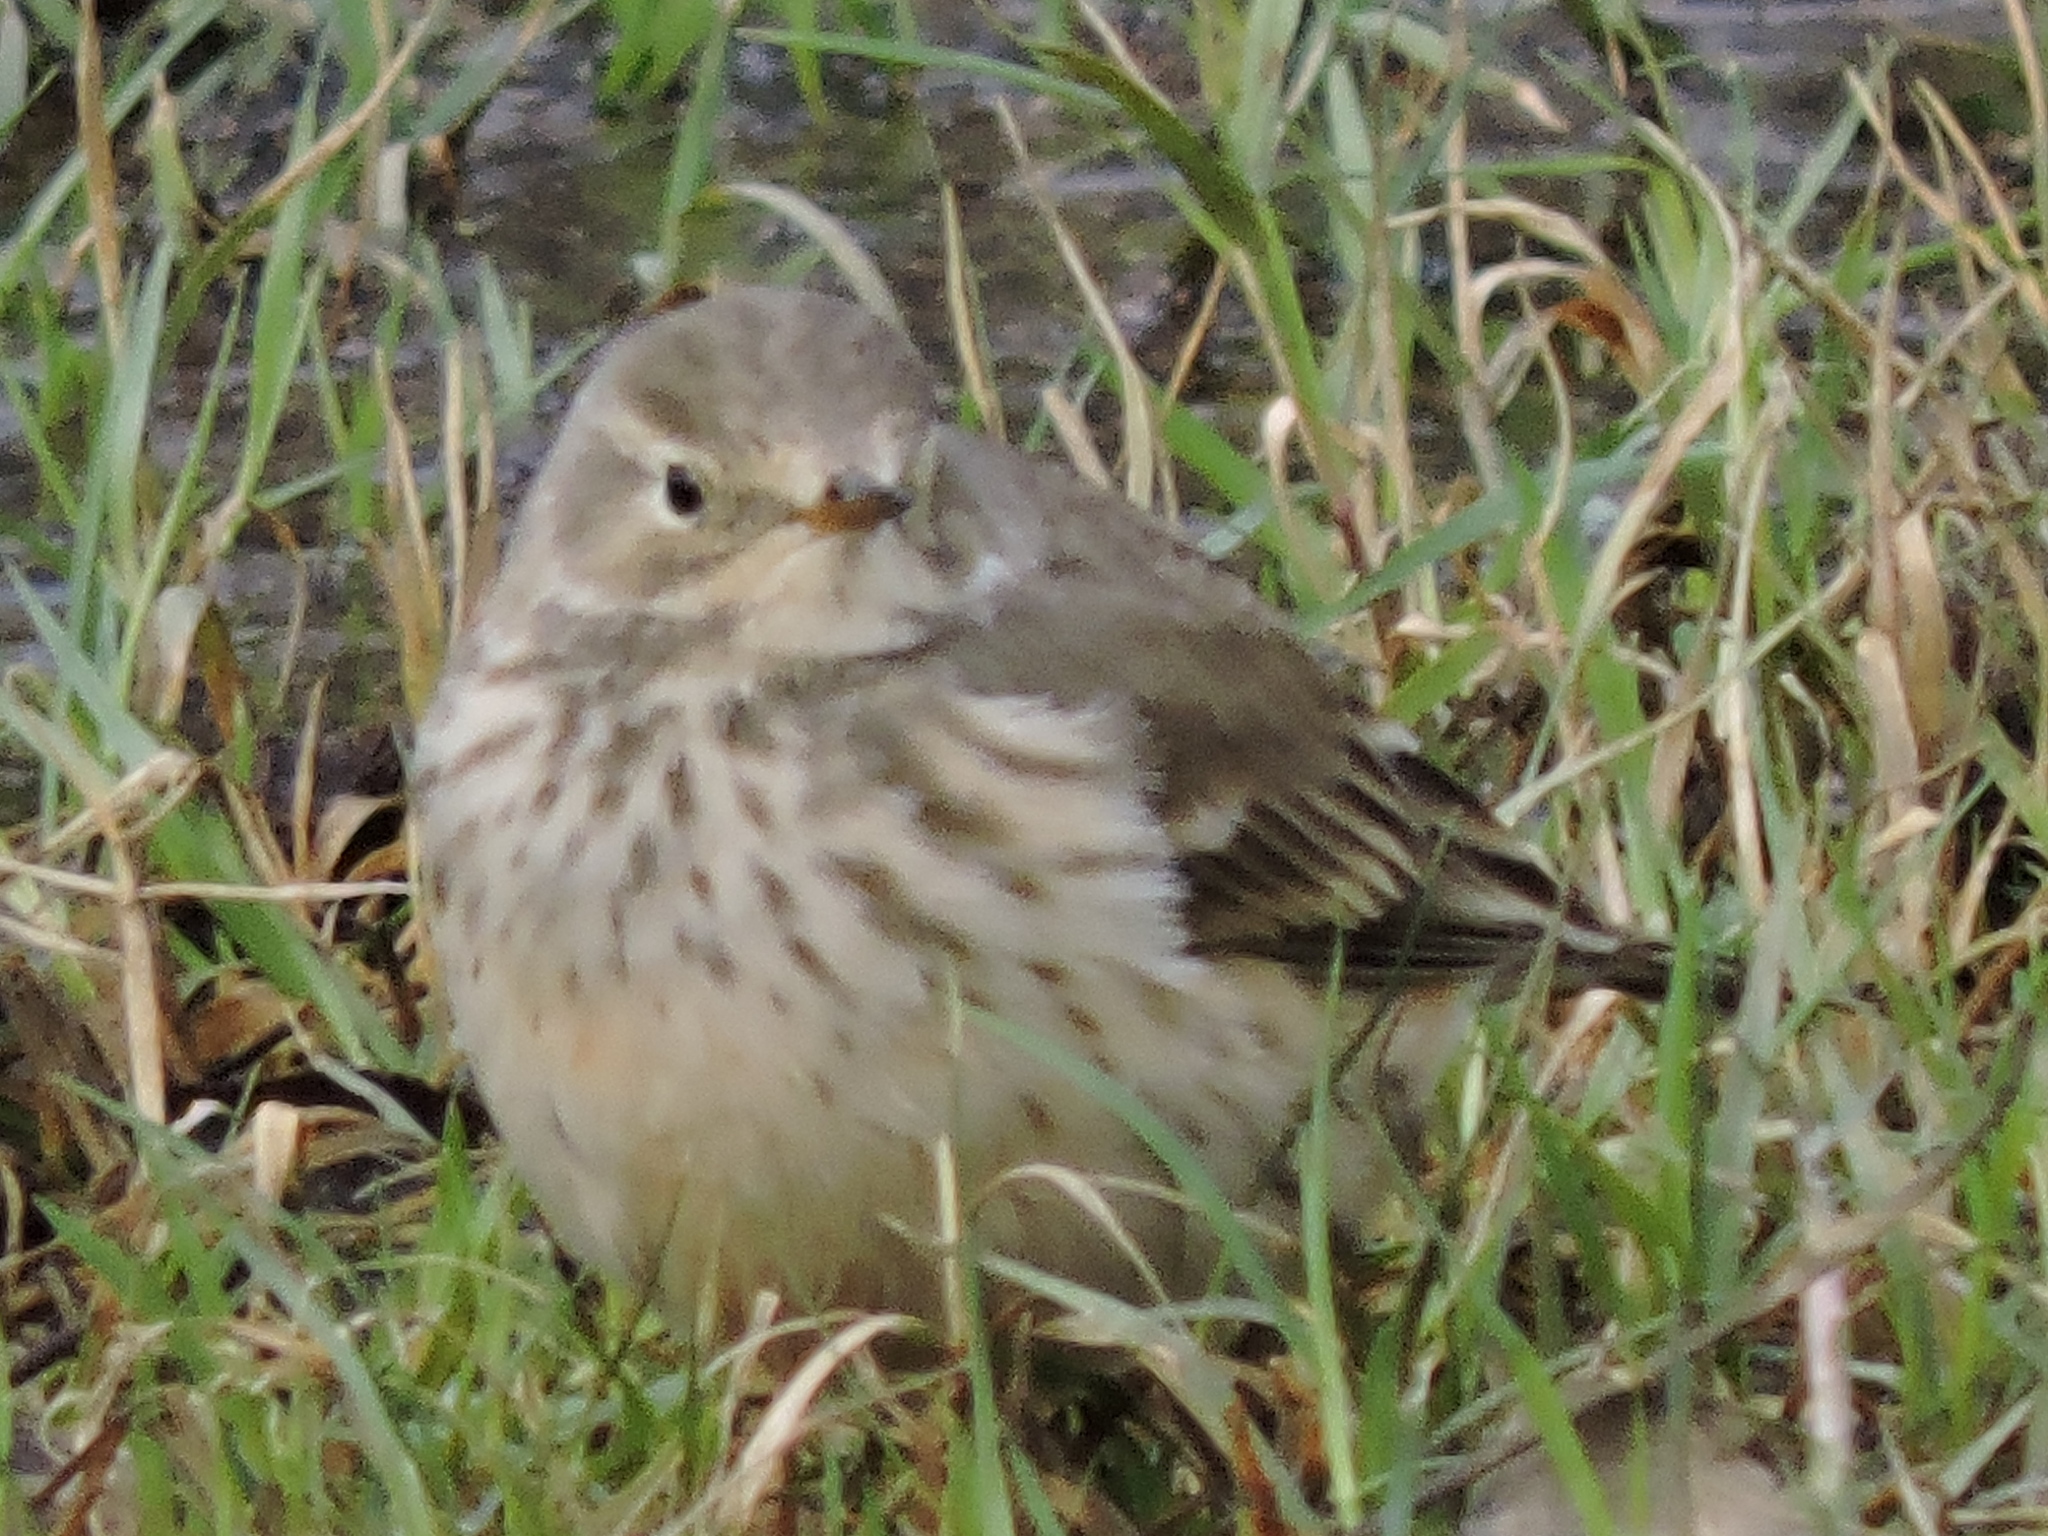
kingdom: Animalia
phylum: Chordata
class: Aves
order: Passeriformes
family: Motacillidae
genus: Anthus
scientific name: Anthus rubescens
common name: Buff-bellied pipit
